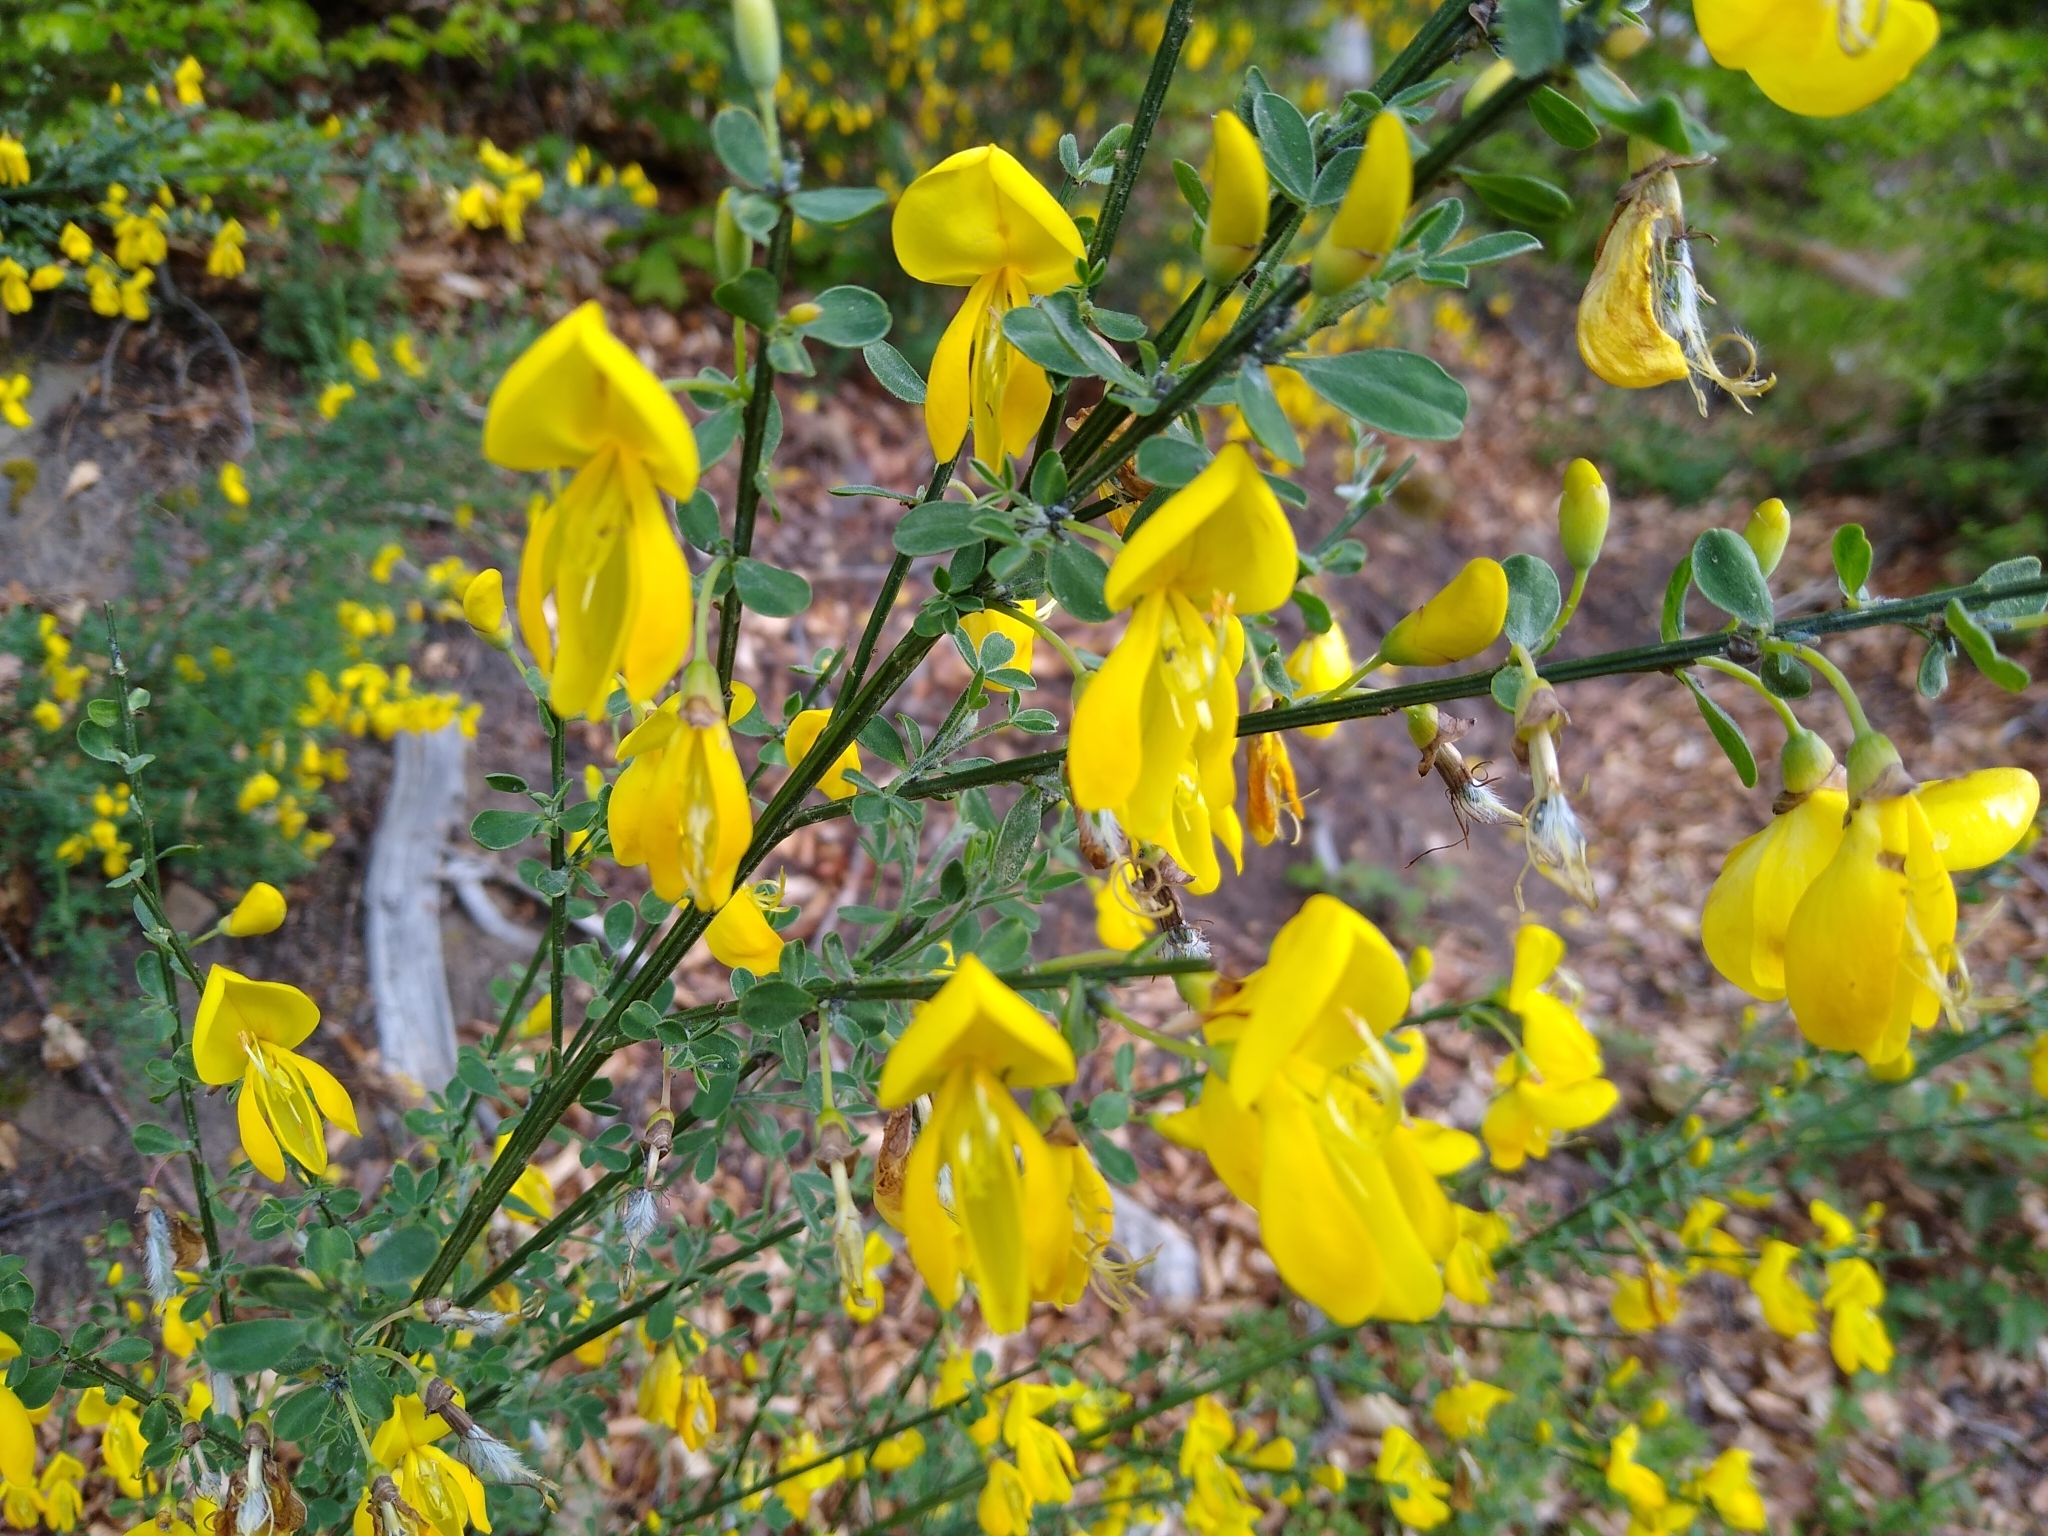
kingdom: Plantae
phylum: Tracheophyta
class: Magnoliopsida
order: Fabales
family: Fabaceae
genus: Cytisus
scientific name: Cytisus scoparius
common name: Scotch broom
